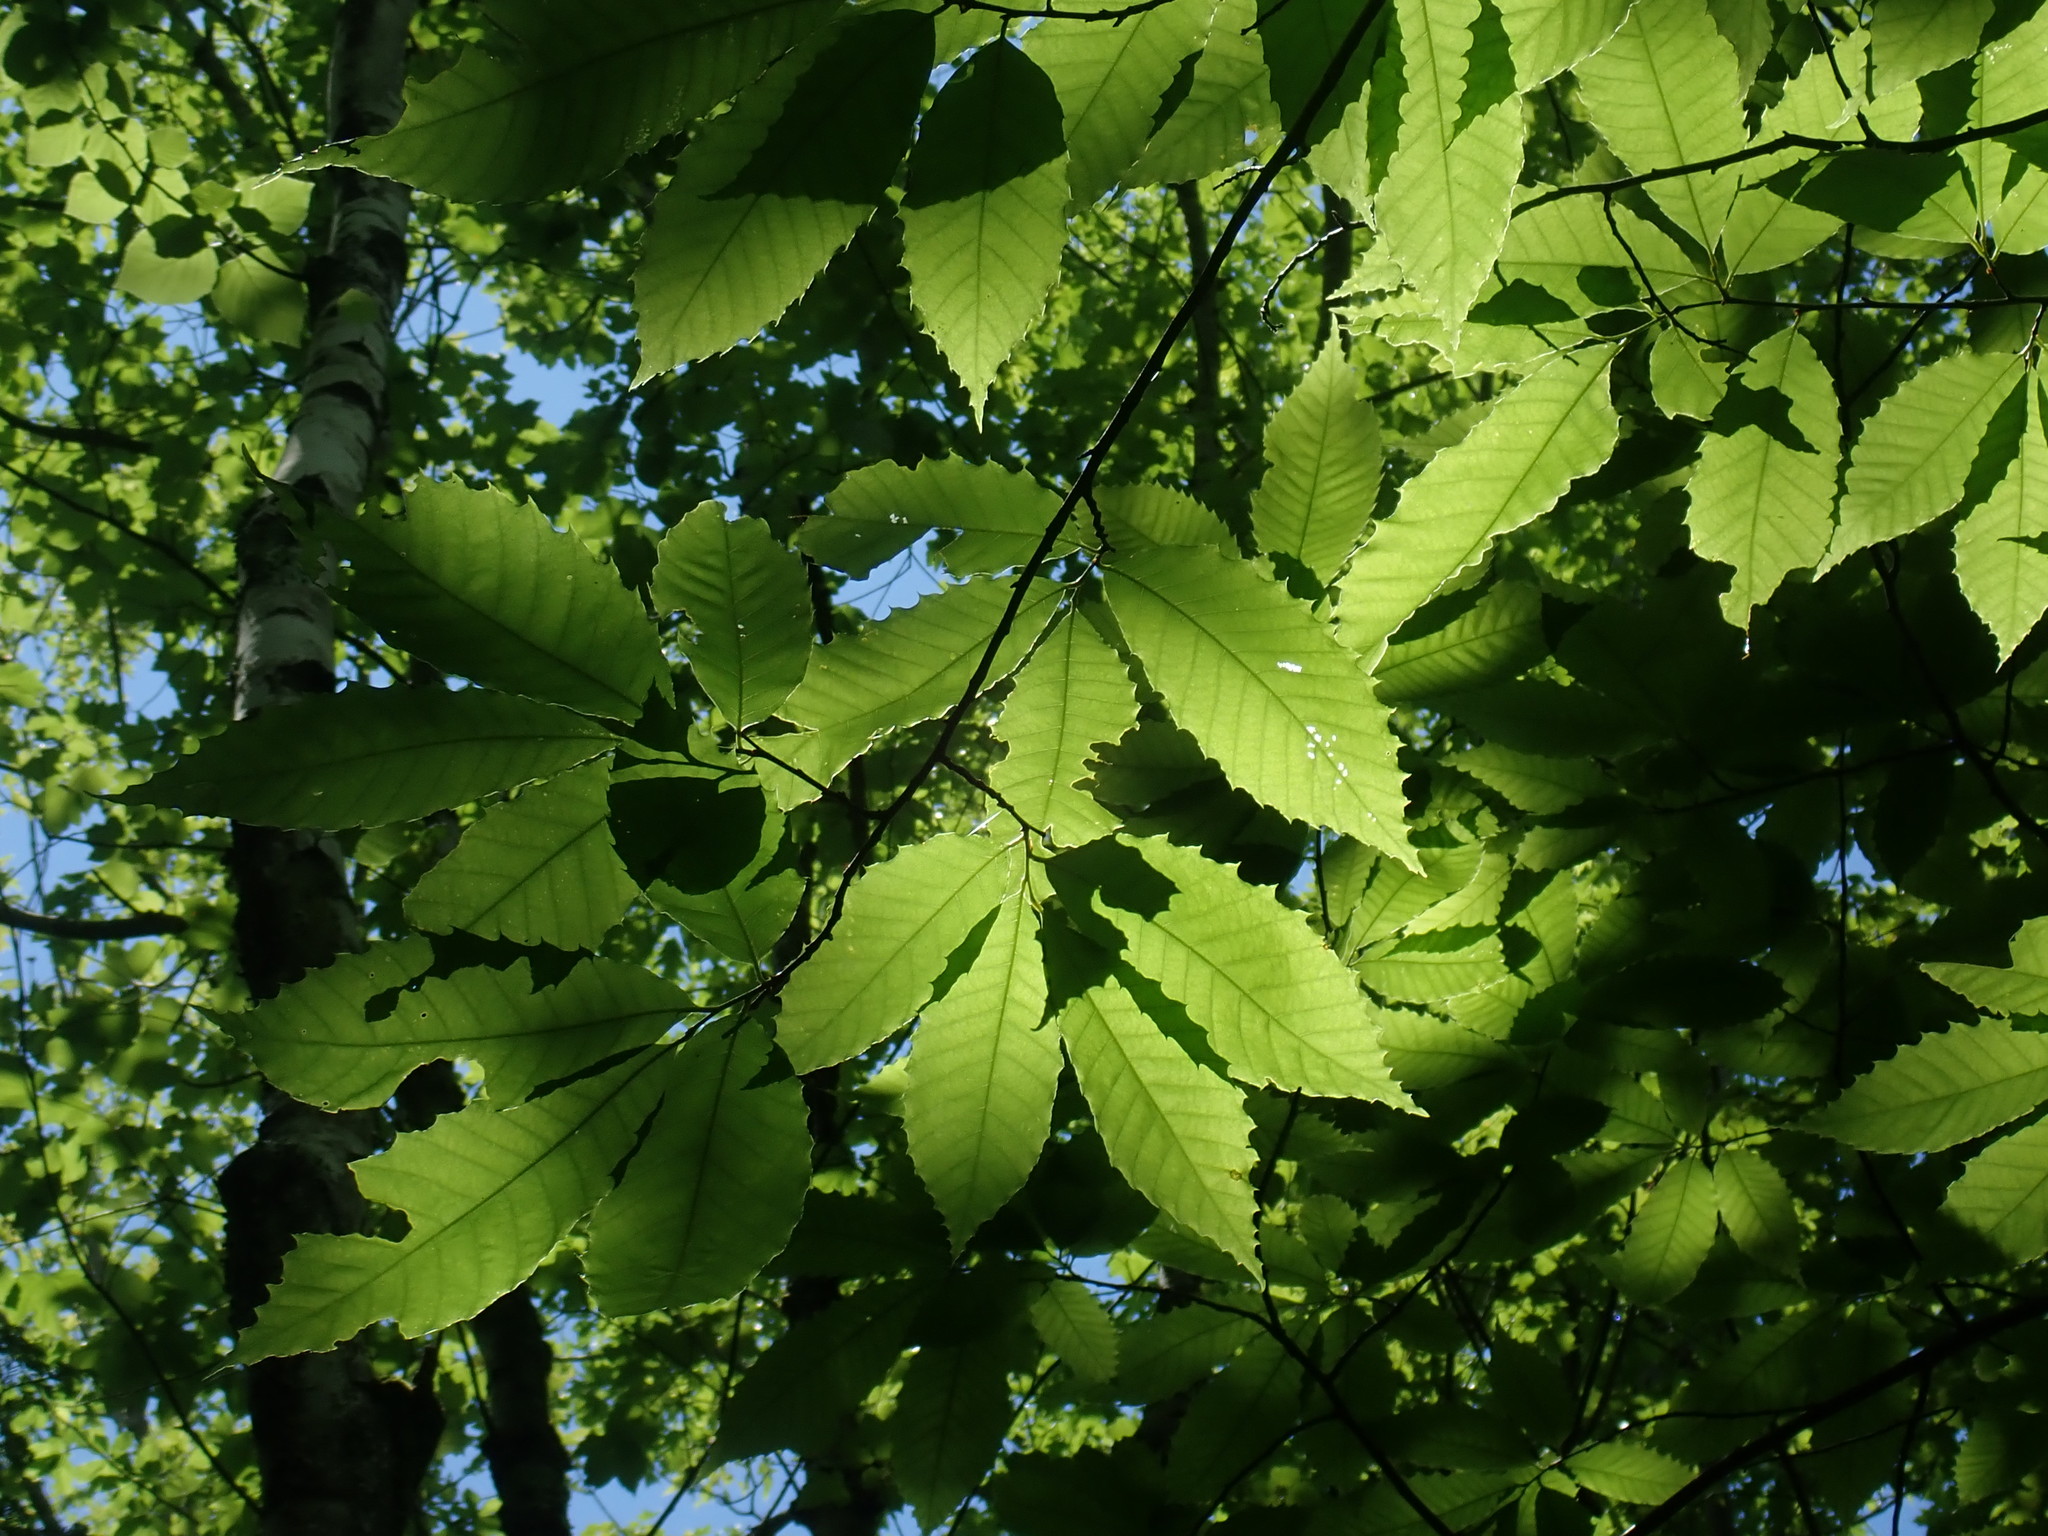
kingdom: Plantae
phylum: Tracheophyta
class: Magnoliopsida
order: Fagales
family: Fagaceae
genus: Castanea
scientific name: Castanea dentata
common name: American chestnut
